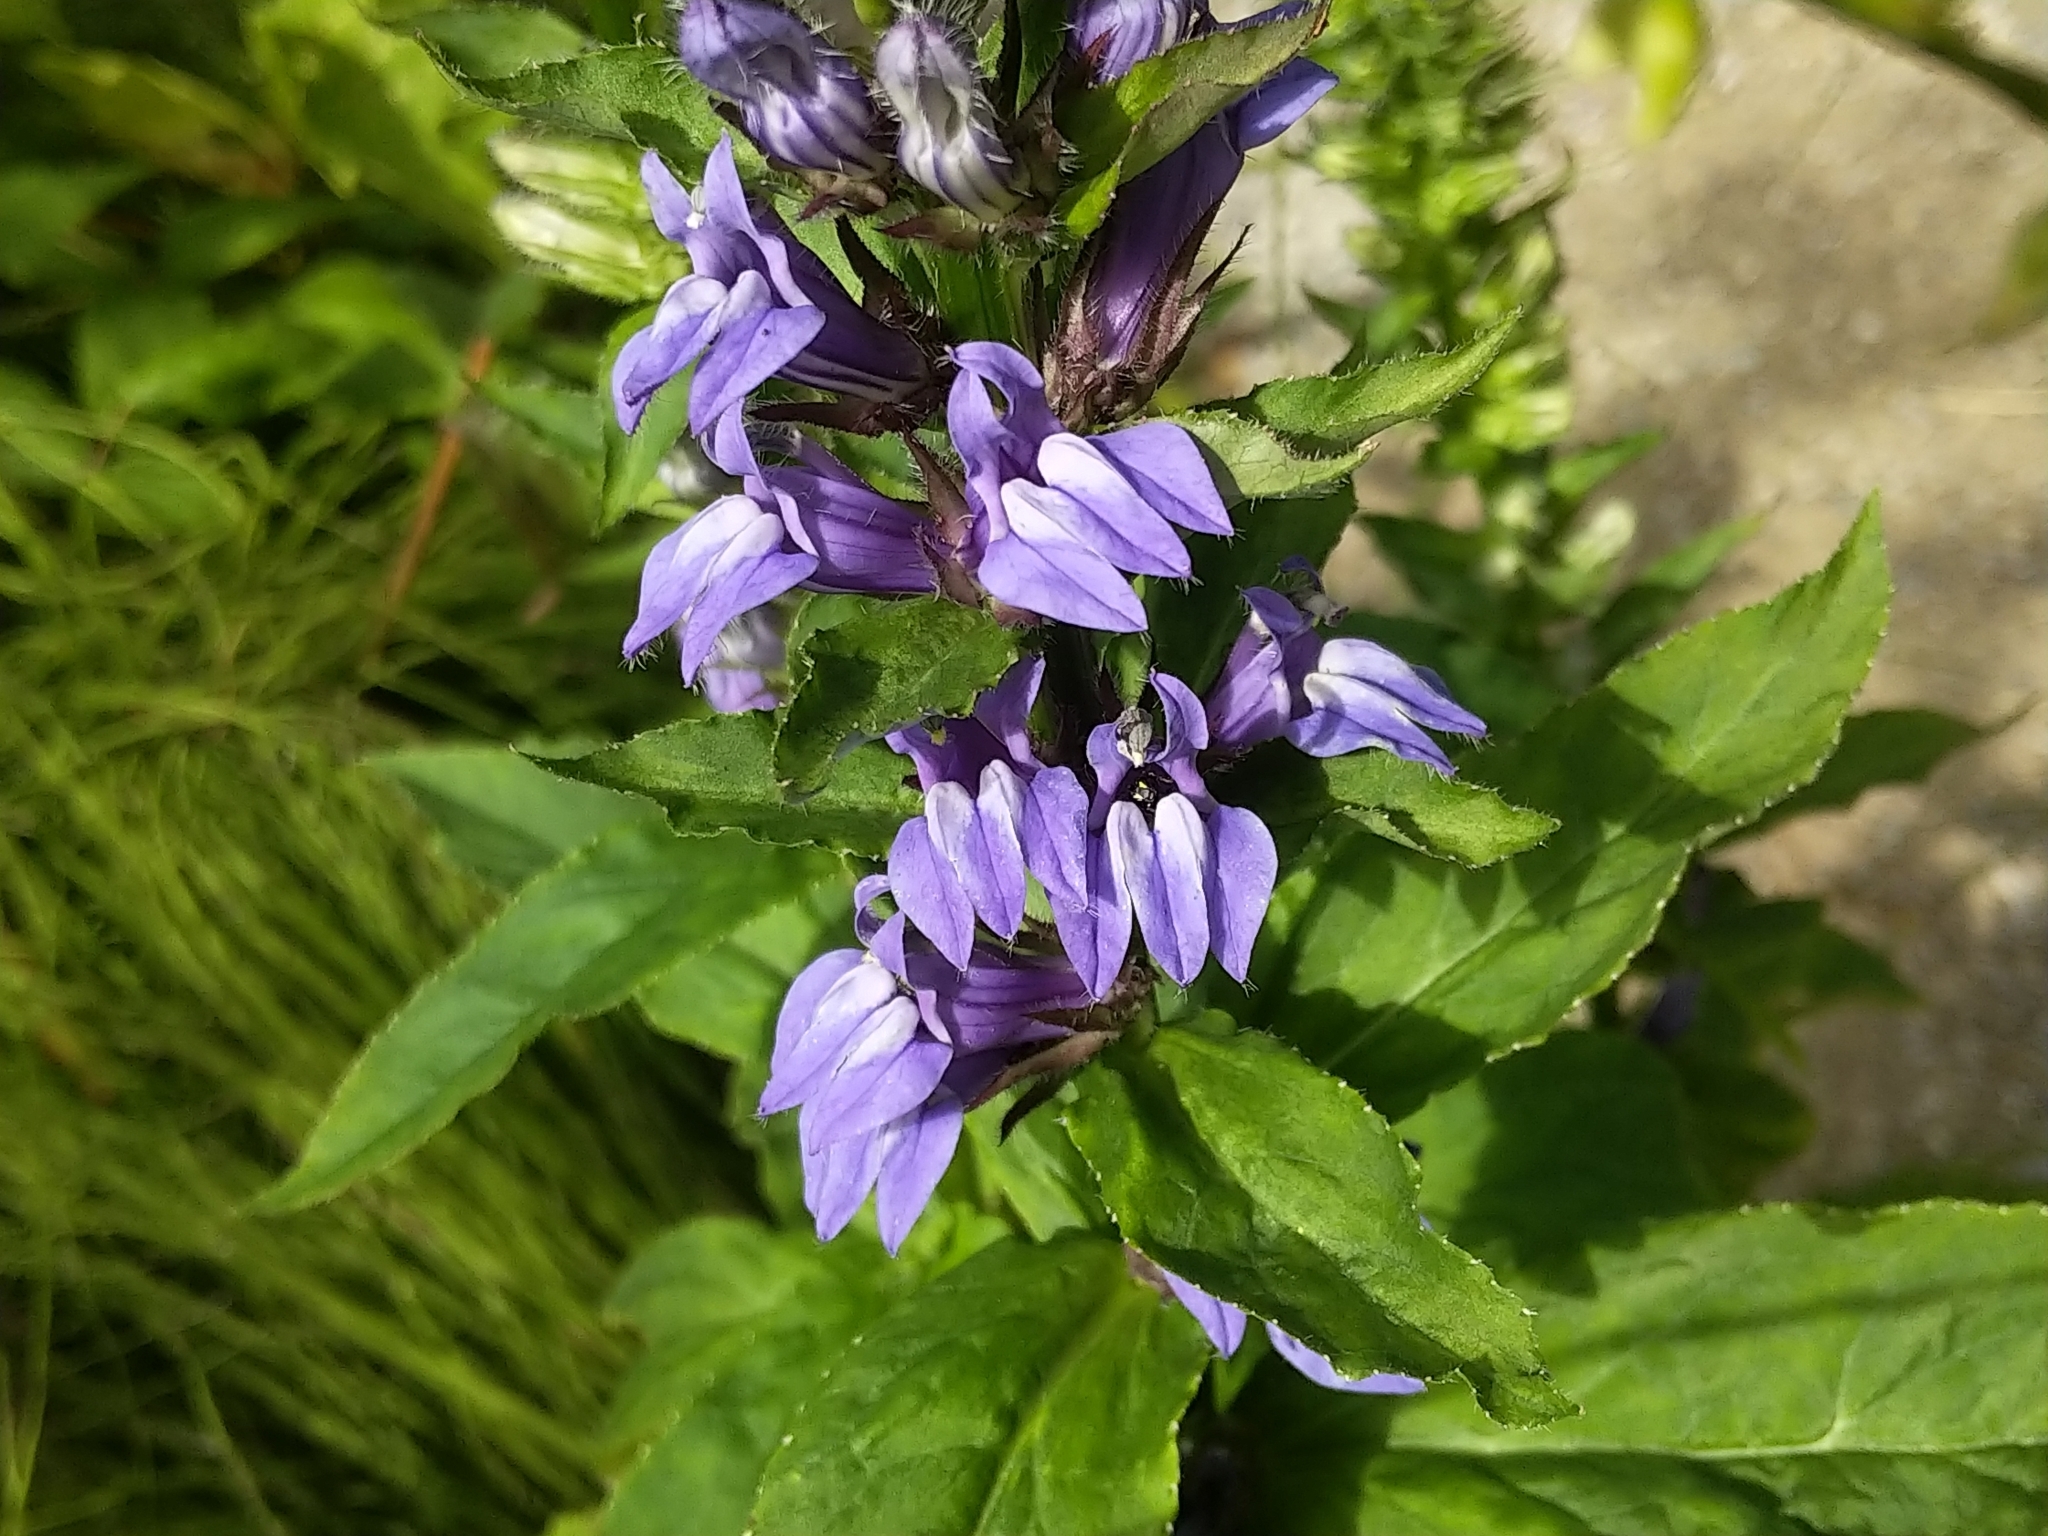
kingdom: Plantae
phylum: Tracheophyta
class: Magnoliopsida
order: Asterales
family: Campanulaceae
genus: Lobelia
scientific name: Lobelia siphilitica
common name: Great lobelia
